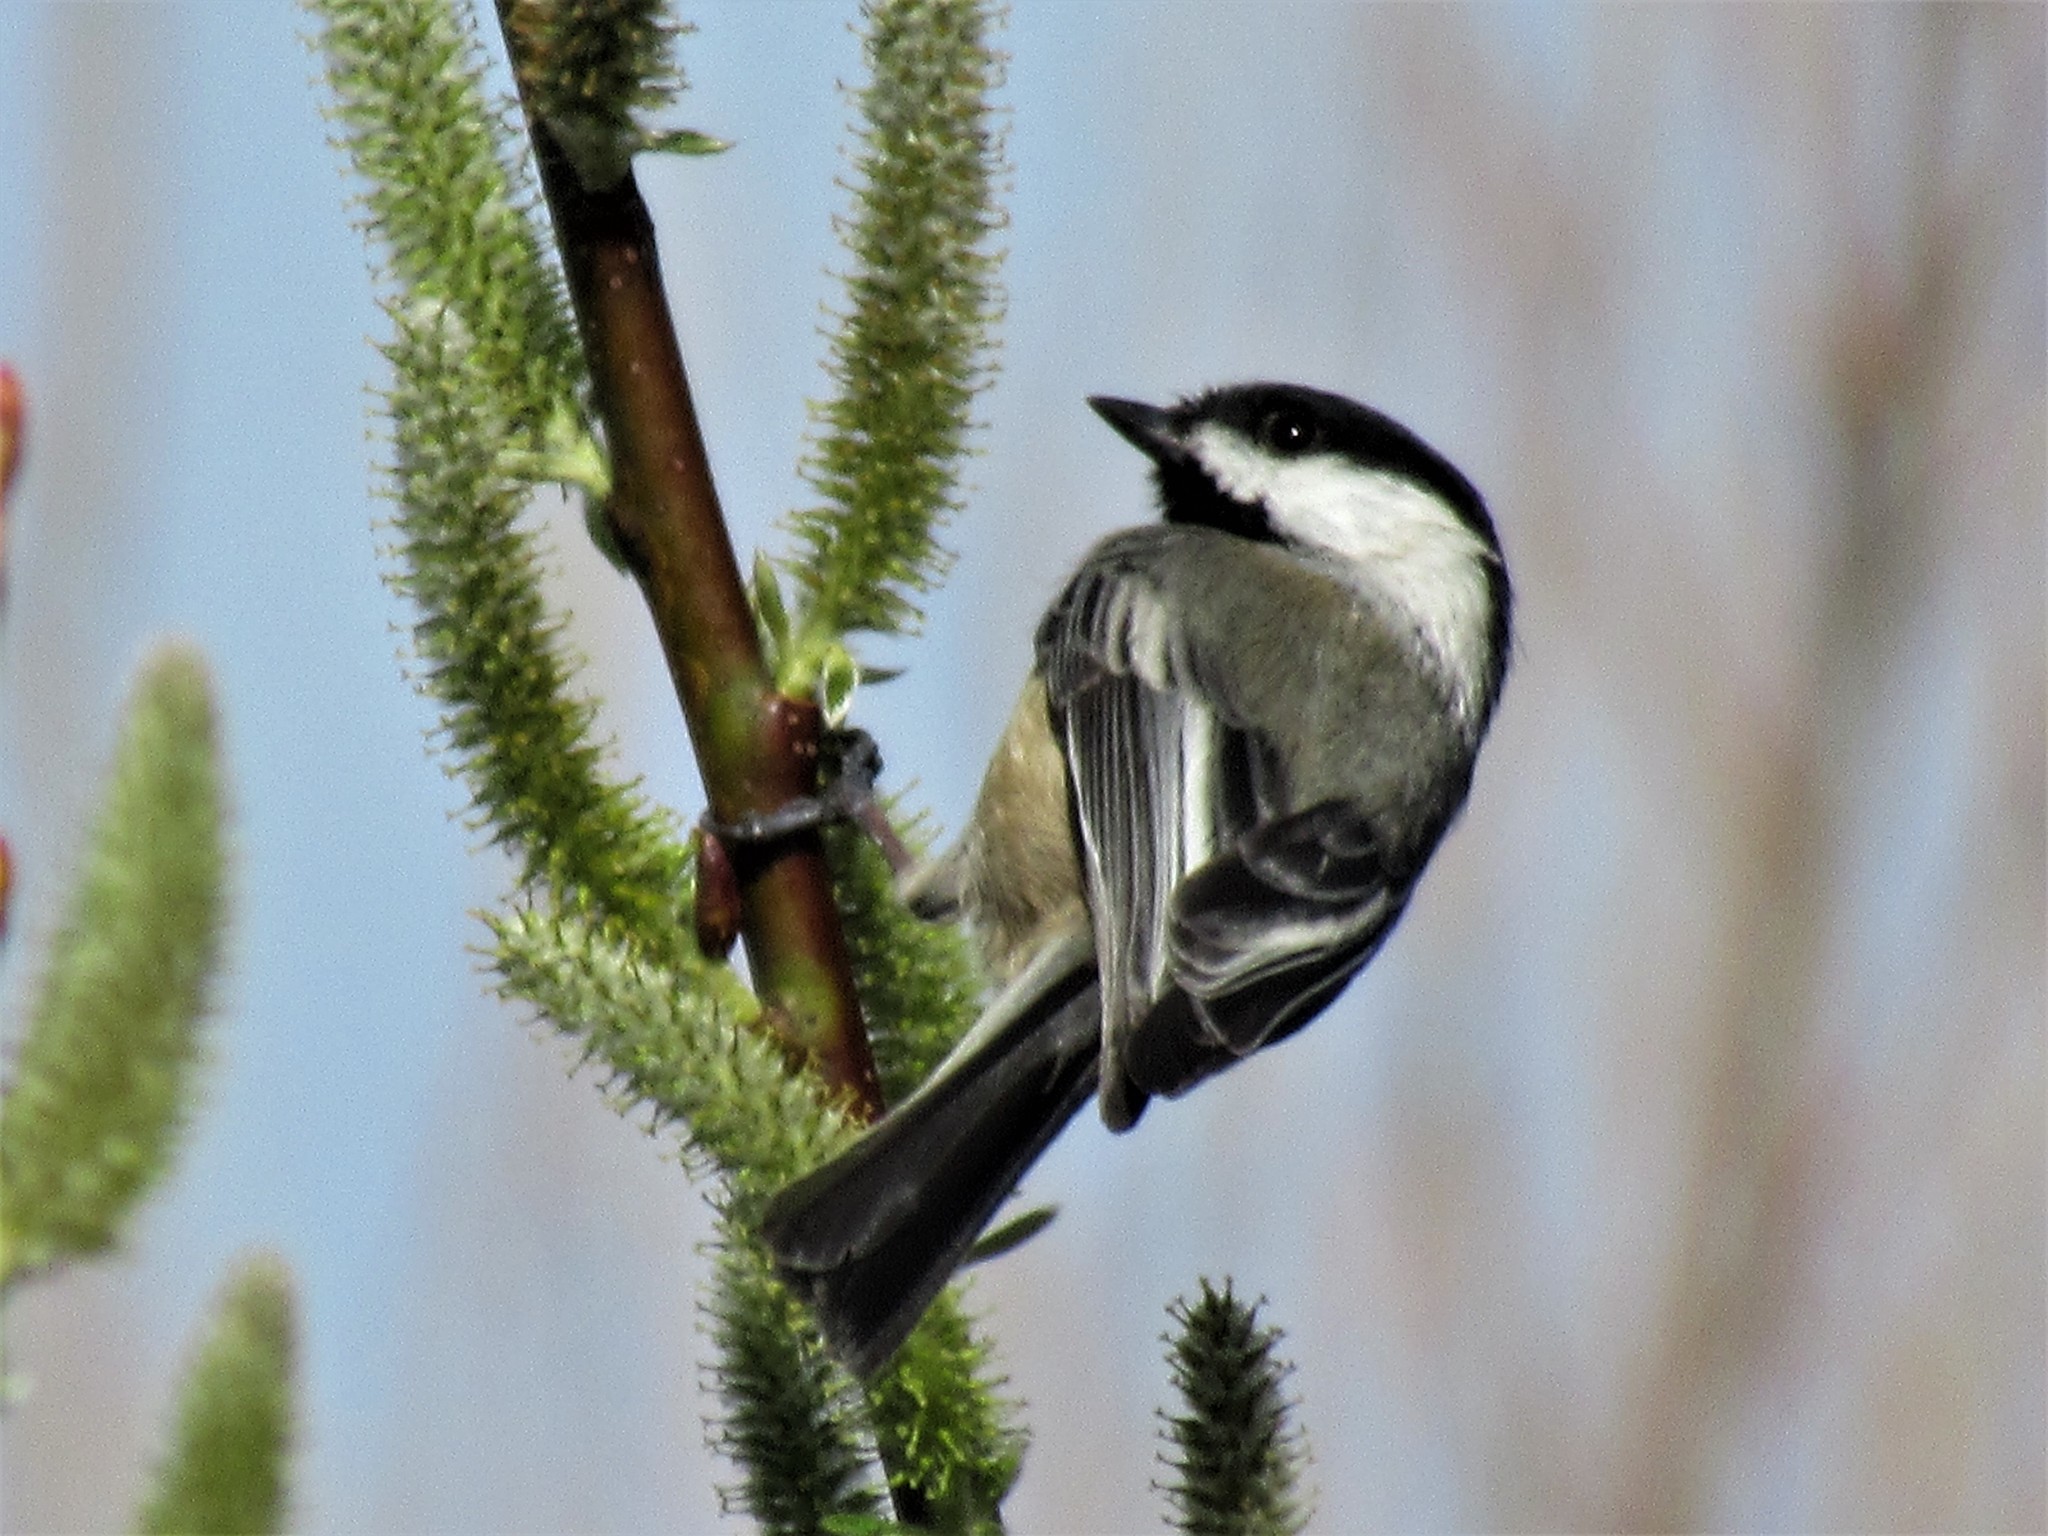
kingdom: Animalia
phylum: Chordata
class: Aves
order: Passeriformes
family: Paridae
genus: Poecile
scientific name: Poecile atricapillus
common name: Black-capped chickadee
